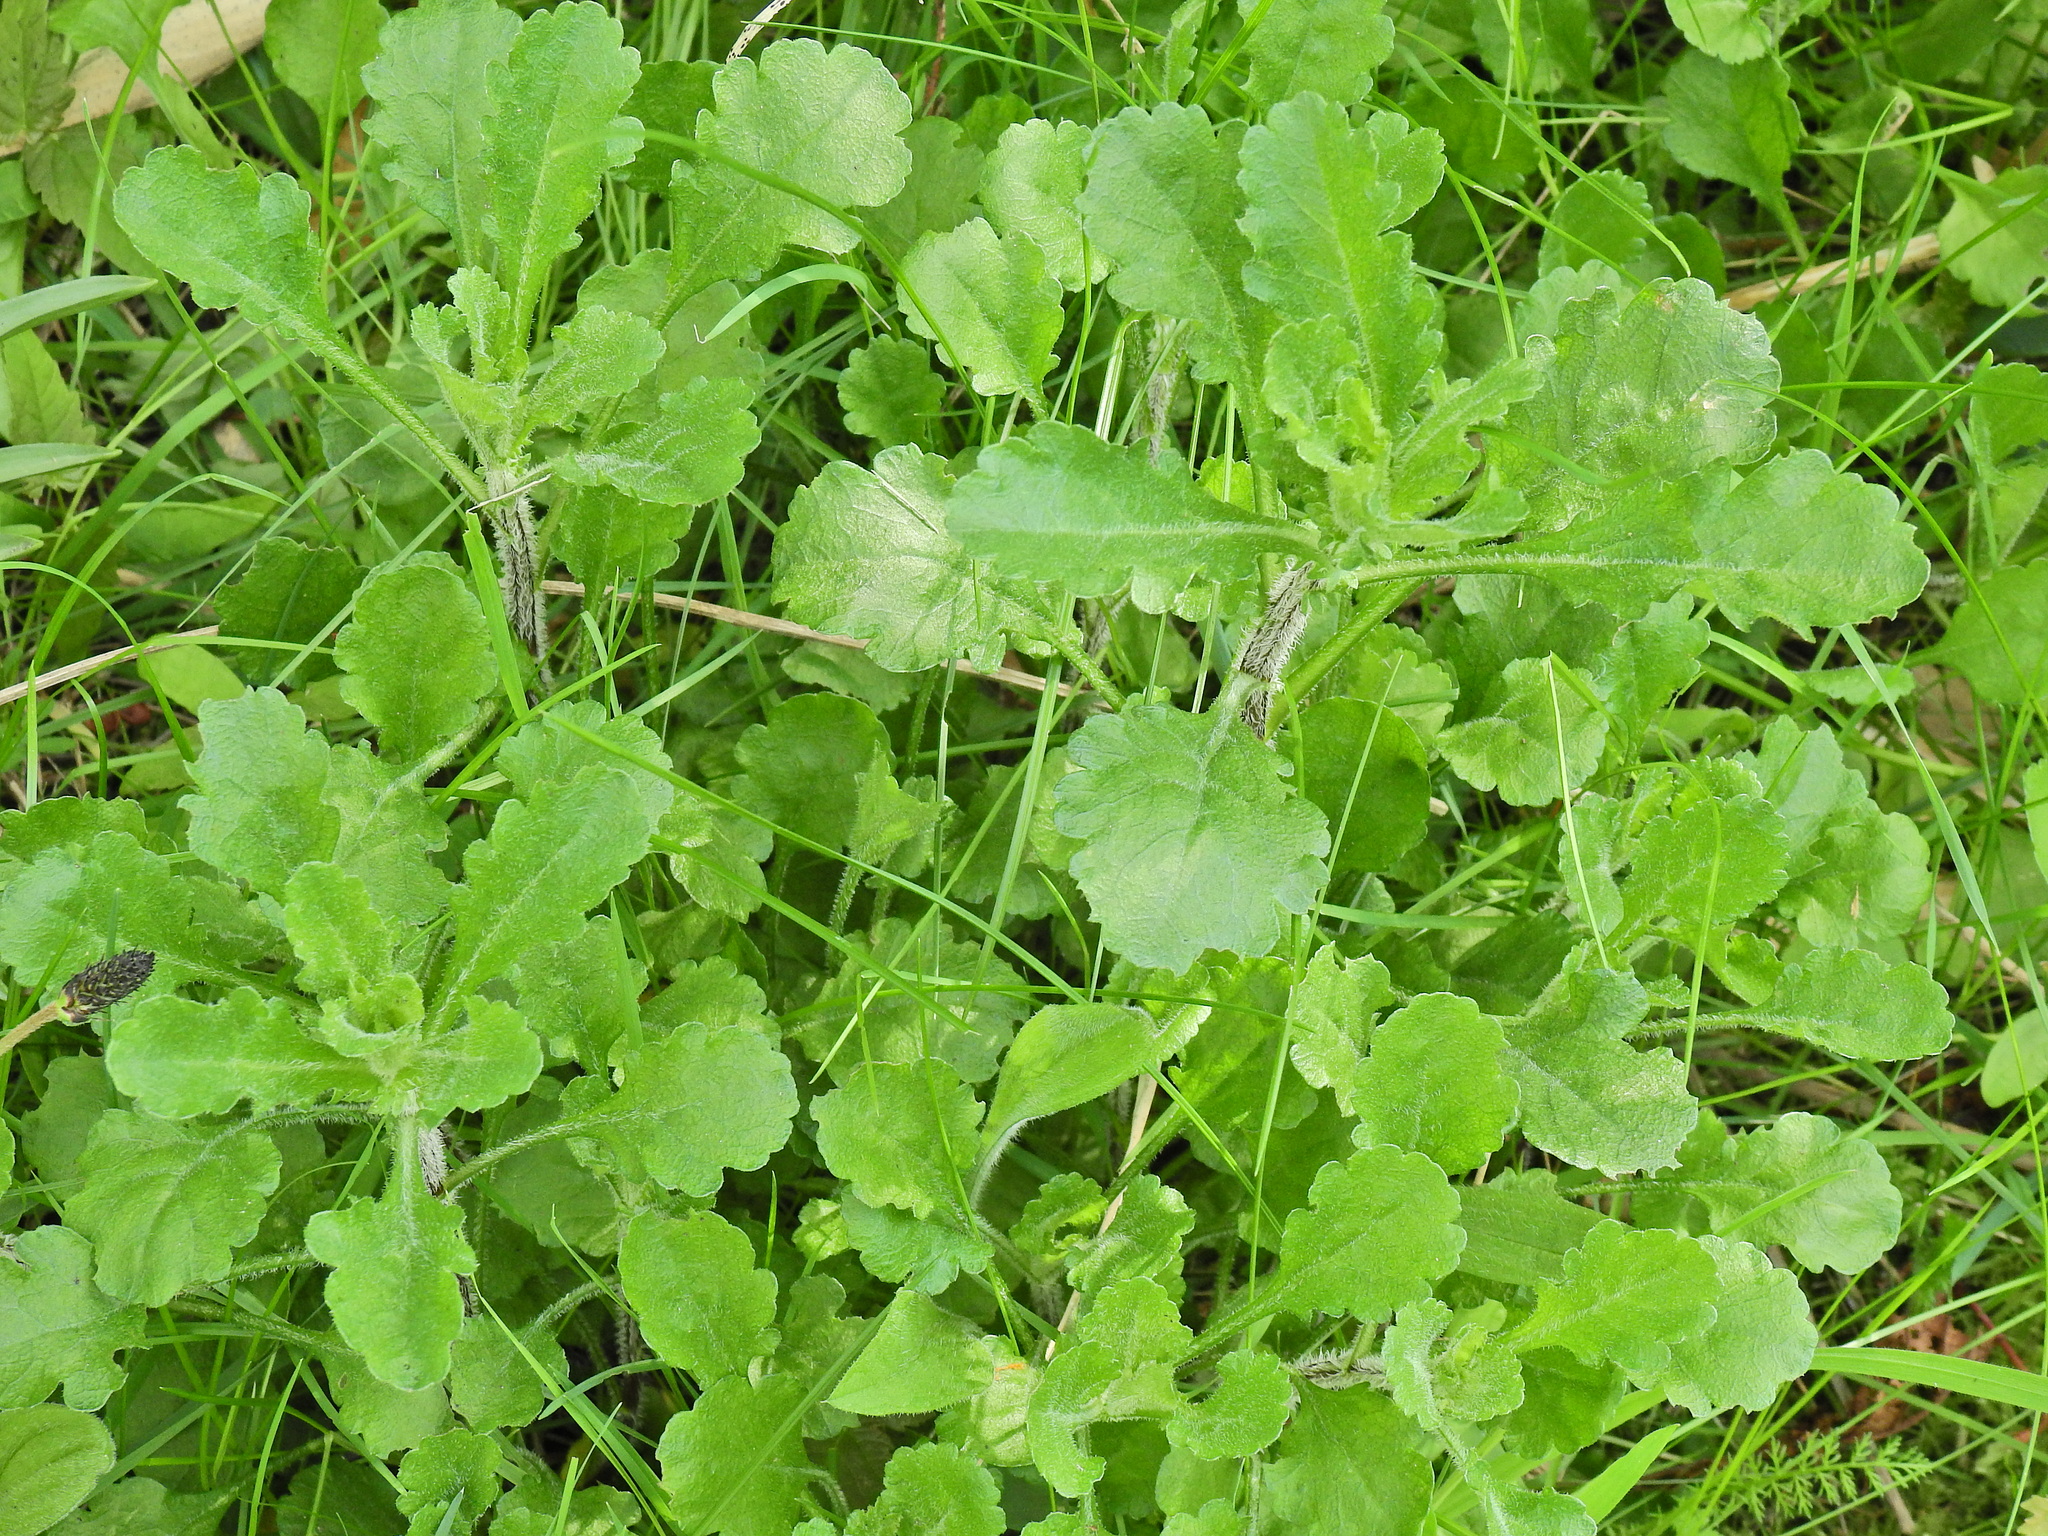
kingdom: Plantae
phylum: Tracheophyta
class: Magnoliopsida
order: Asterales
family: Asteraceae
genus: Leucanthemum
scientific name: Leucanthemum vulgare
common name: Oxeye daisy
